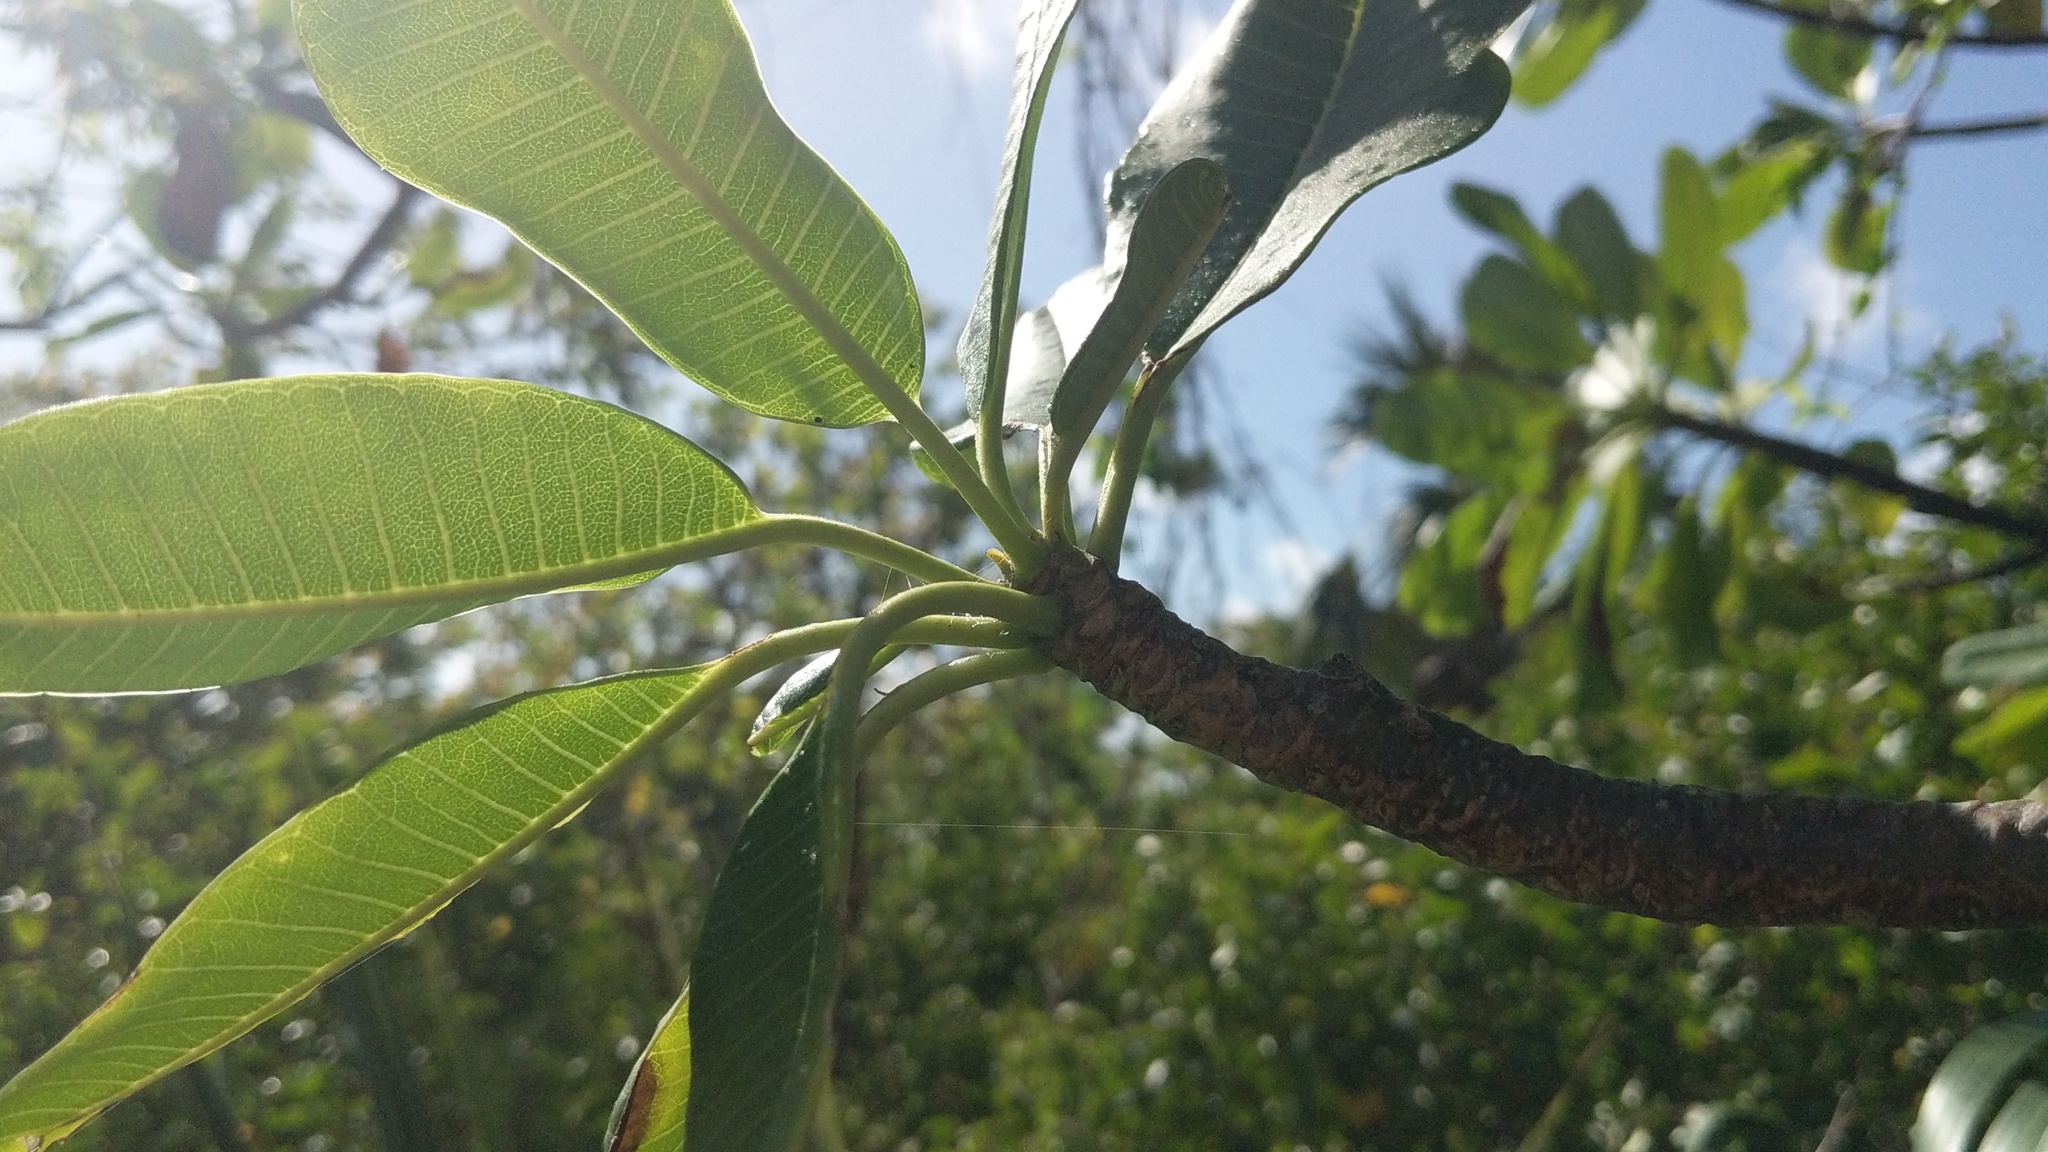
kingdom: Plantae
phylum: Tracheophyta
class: Magnoliopsida
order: Gentianales
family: Apocynaceae
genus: Plumeria
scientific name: Plumeria obtusa
